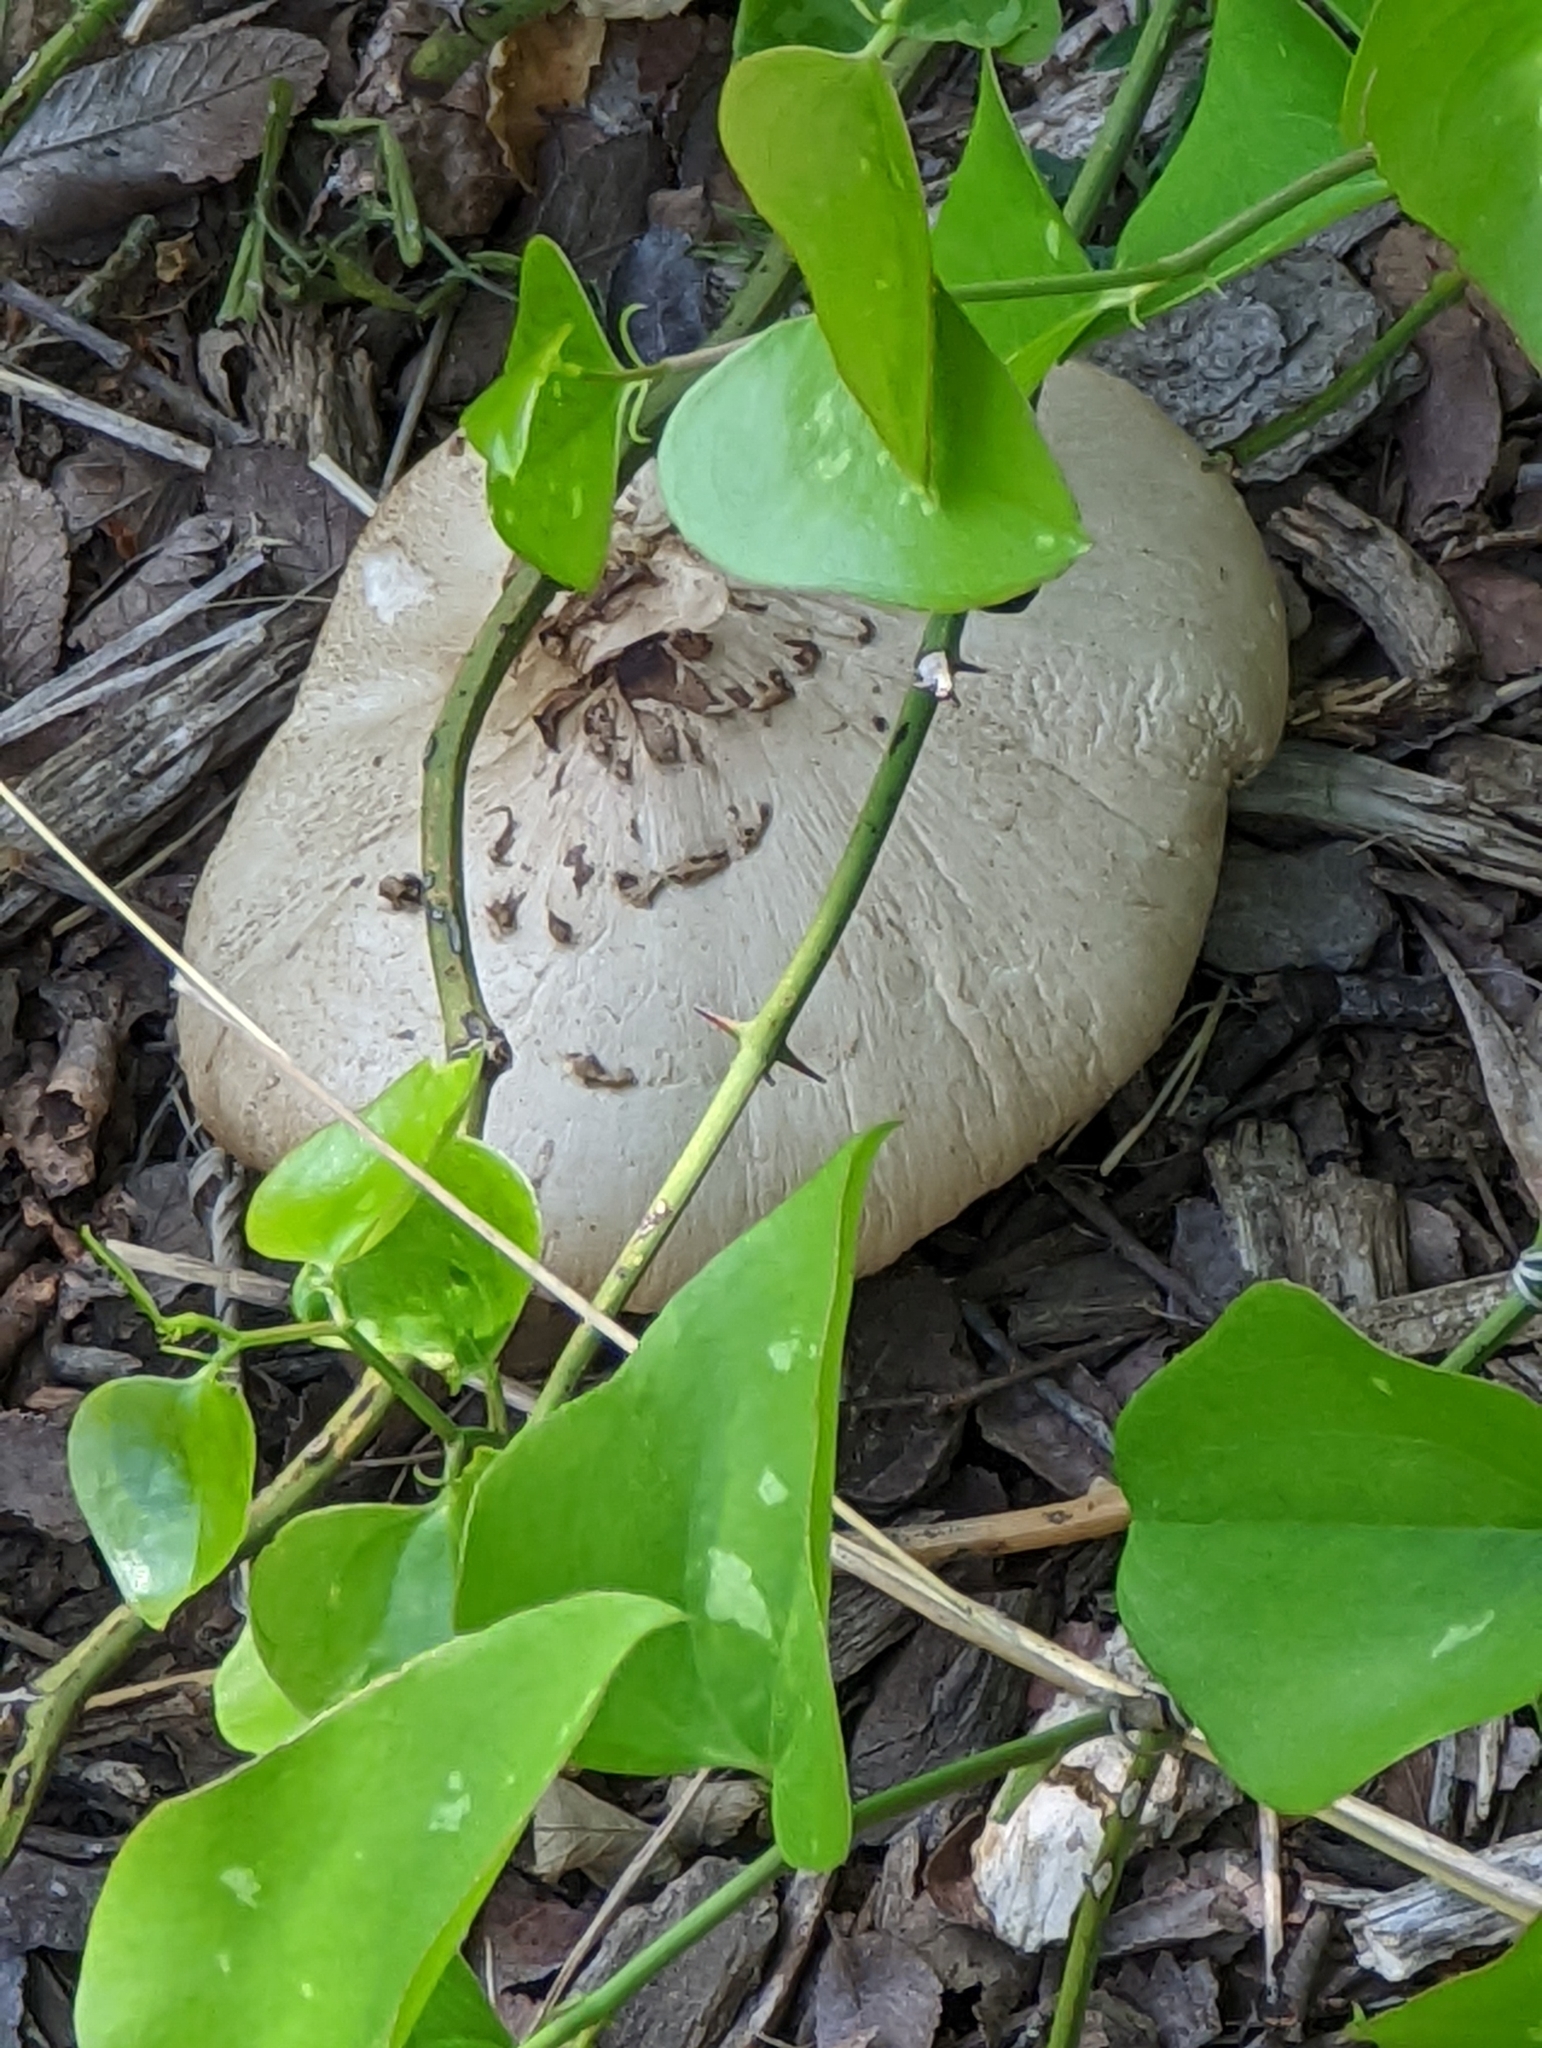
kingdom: Fungi
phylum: Basidiomycota
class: Agaricomycetes
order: Agaricales
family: Pluteaceae
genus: Pluteus
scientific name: Pluteus petasatus
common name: Scaly shield
